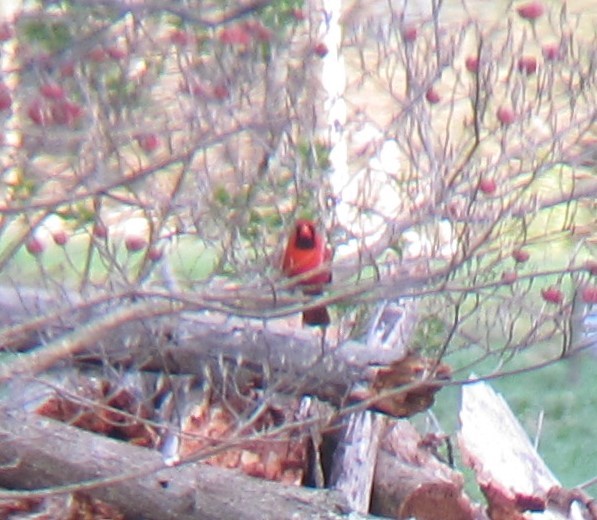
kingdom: Animalia
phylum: Chordata
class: Aves
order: Passeriformes
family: Cardinalidae
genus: Cardinalis
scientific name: Cardinalis cardinalis
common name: Northern cardinal
